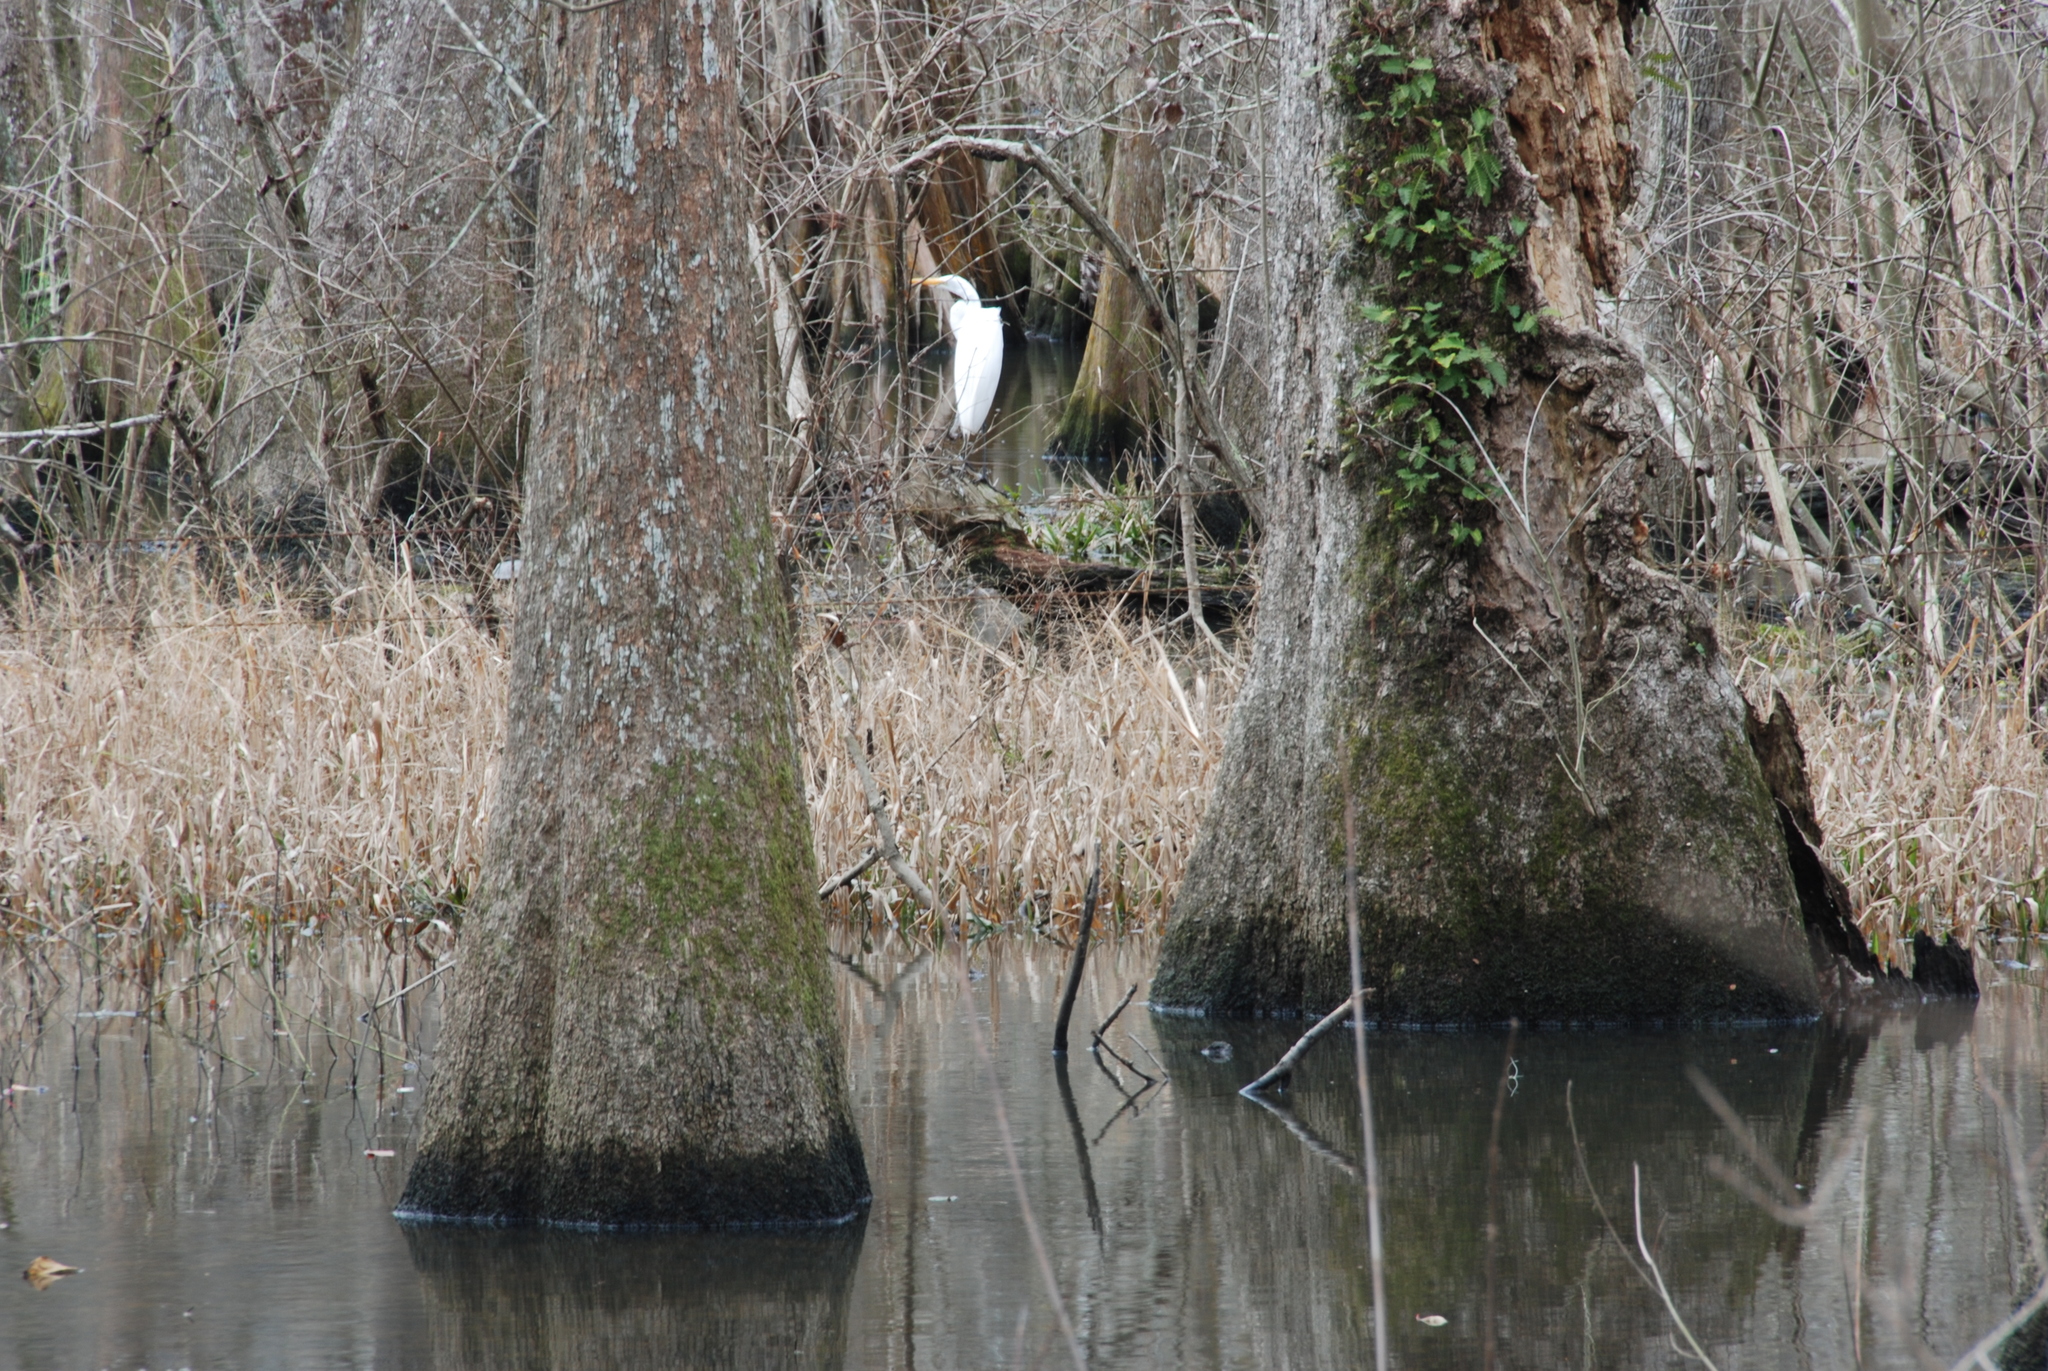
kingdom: Animalia
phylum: Chordata
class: Aves
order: Pelecaniformes
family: Ardeidae
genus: Ardea
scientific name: Ardea alba
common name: Great egret
